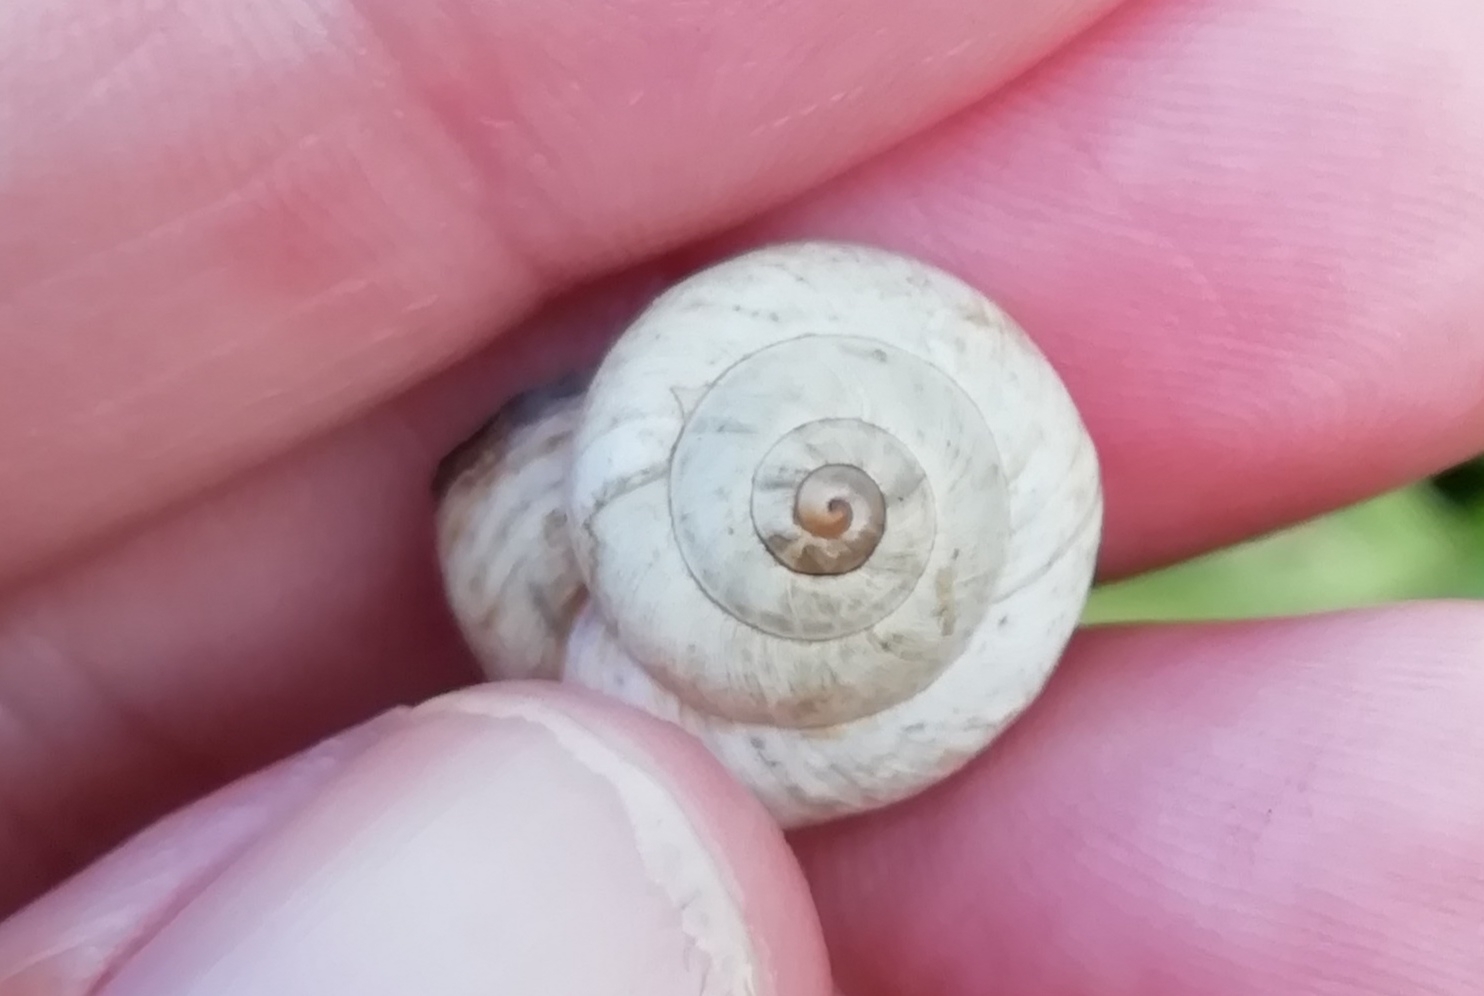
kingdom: Animalia
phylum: Mollusca
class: Gastropoda
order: Stylommatophora
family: Helicidae
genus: Theba
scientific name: Theba pisana
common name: White snail
